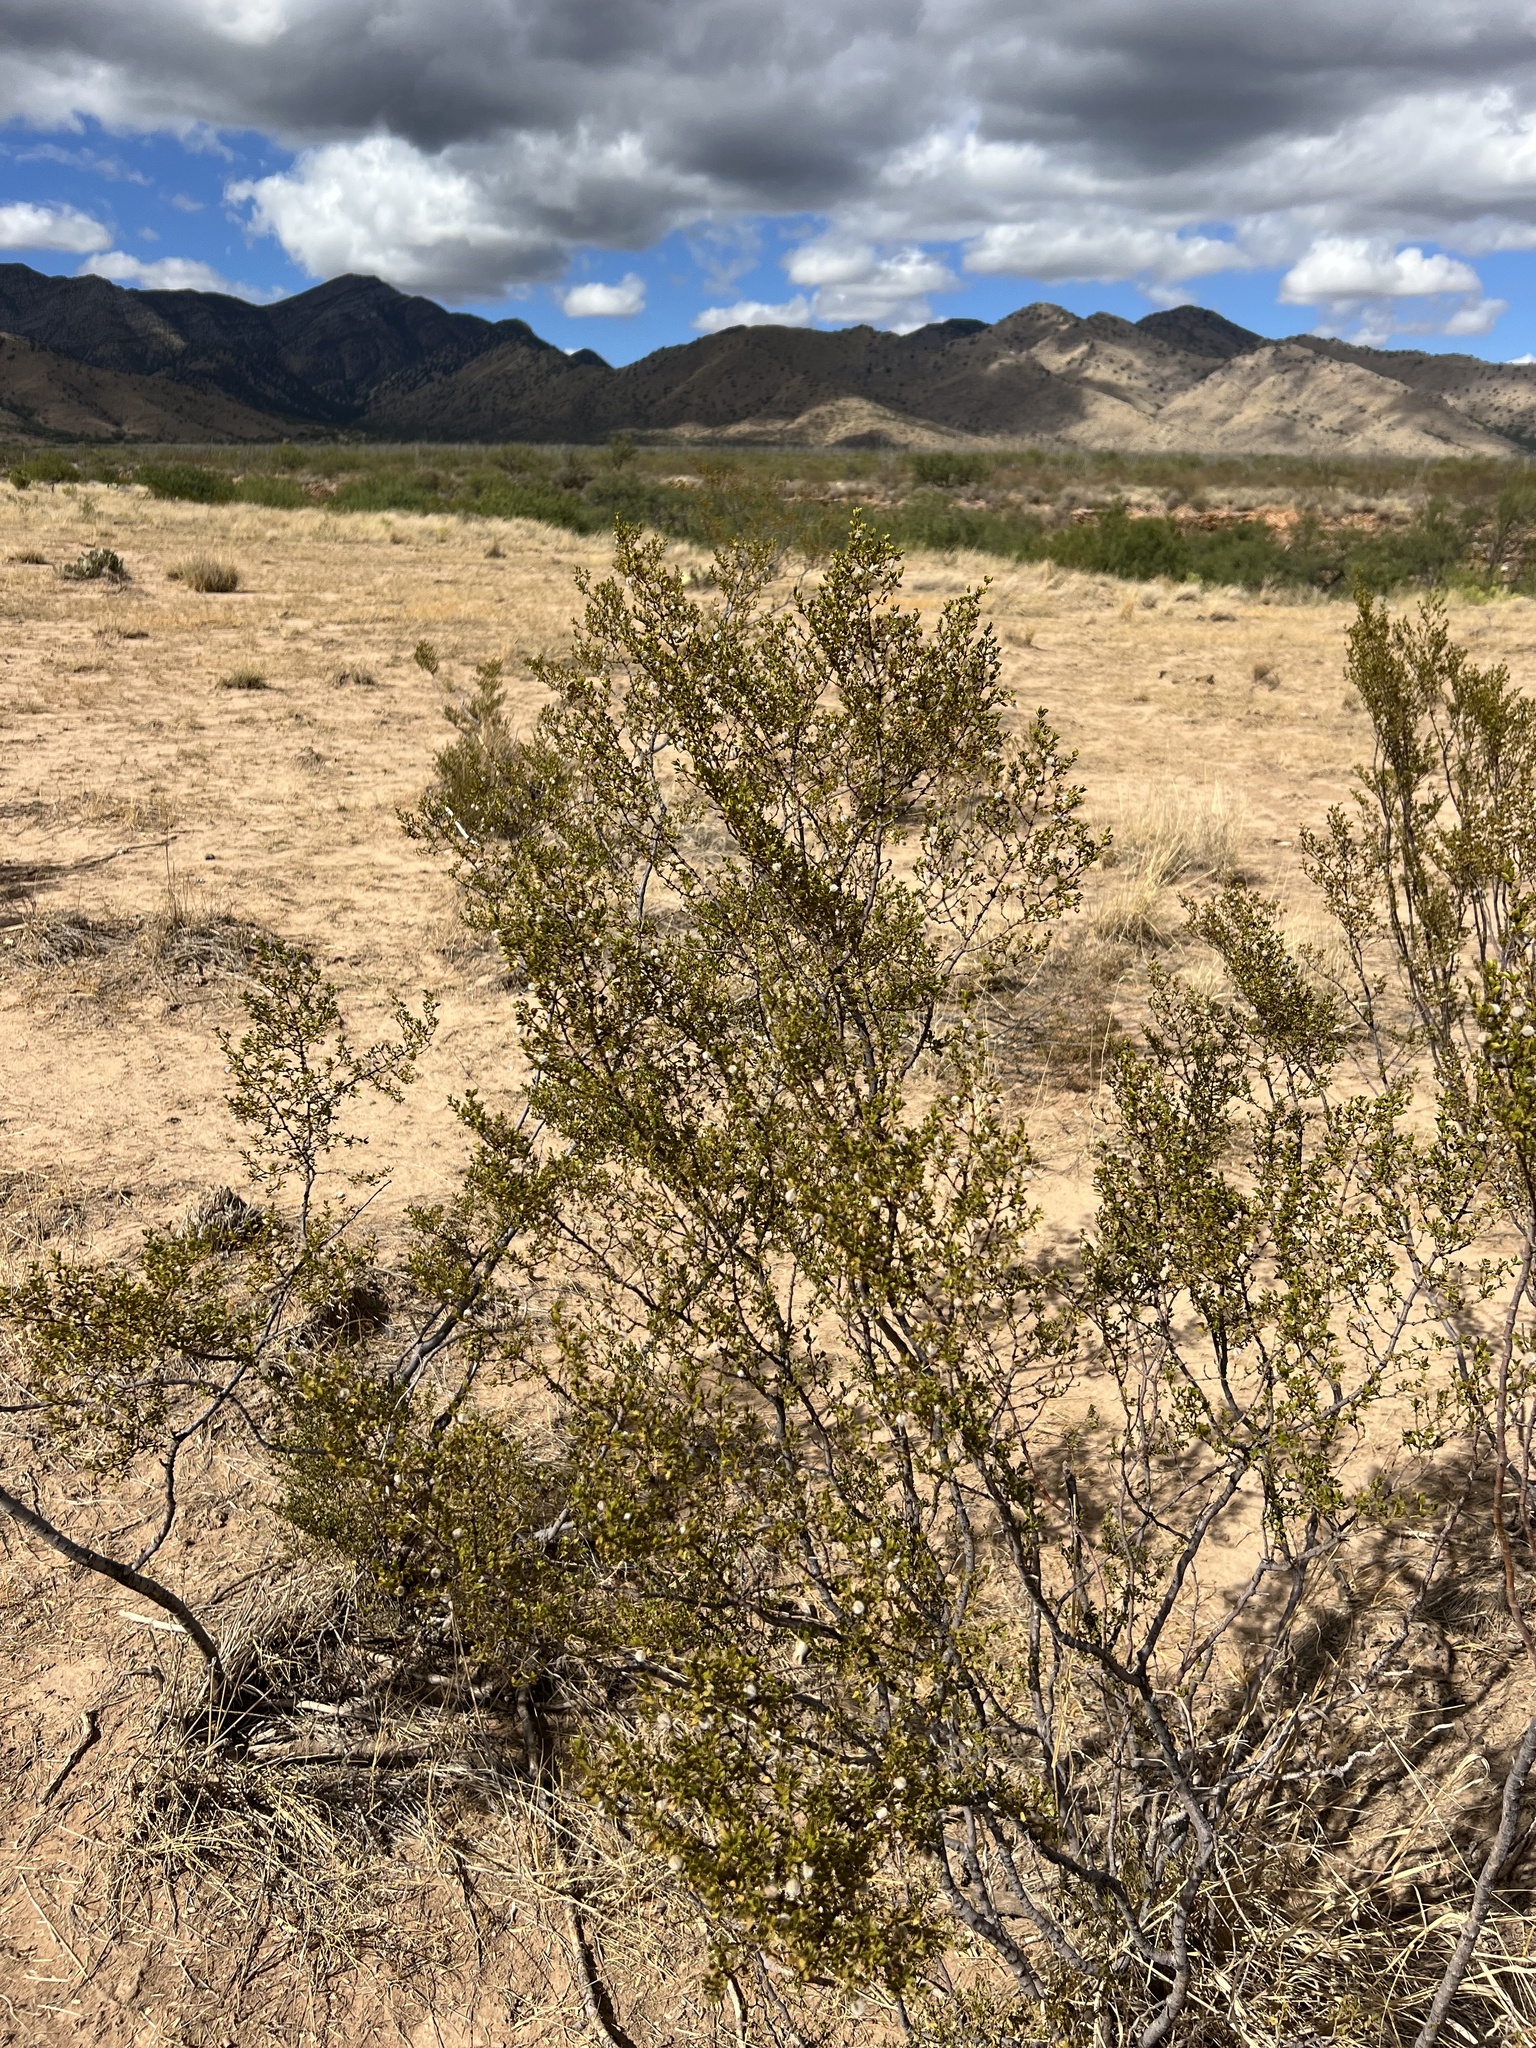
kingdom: Plantae
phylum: Tracheophyta
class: Magnoliopsida
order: Zygophyllales
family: Zygophyllaceae
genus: Larrea
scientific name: Larrea tridentata
